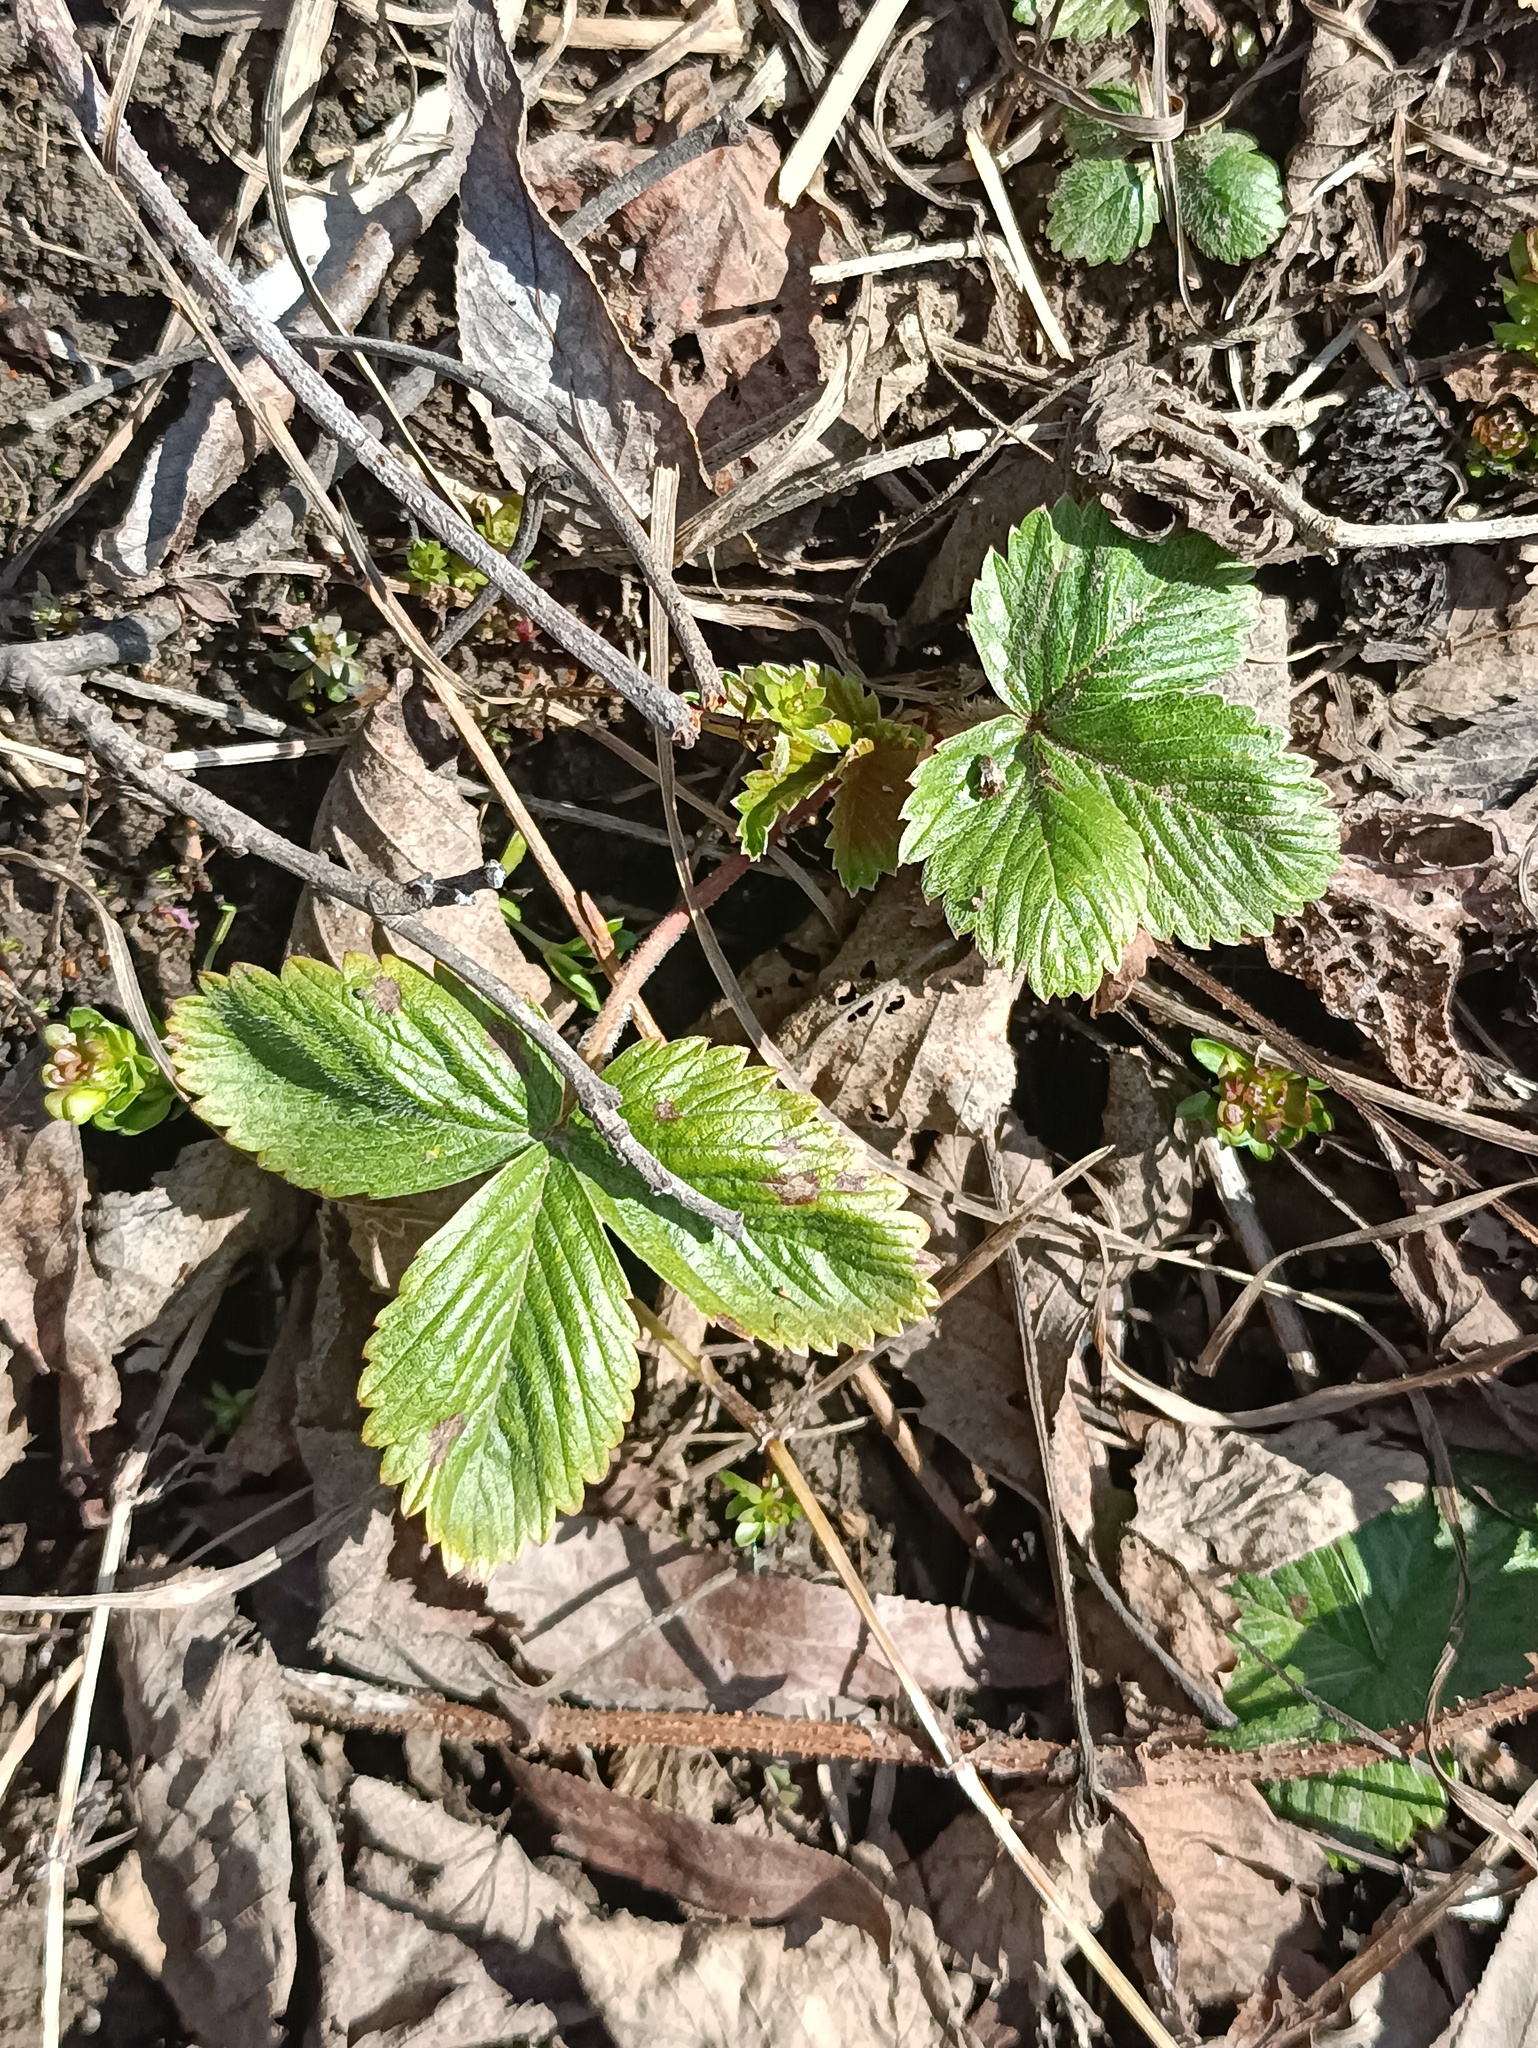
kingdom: Plantae
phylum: Tracheophyta
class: Magnoliopsida
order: Rosales
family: Rosaceae
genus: Fragaria
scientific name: Fragaria vesca
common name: Wild strawberry
